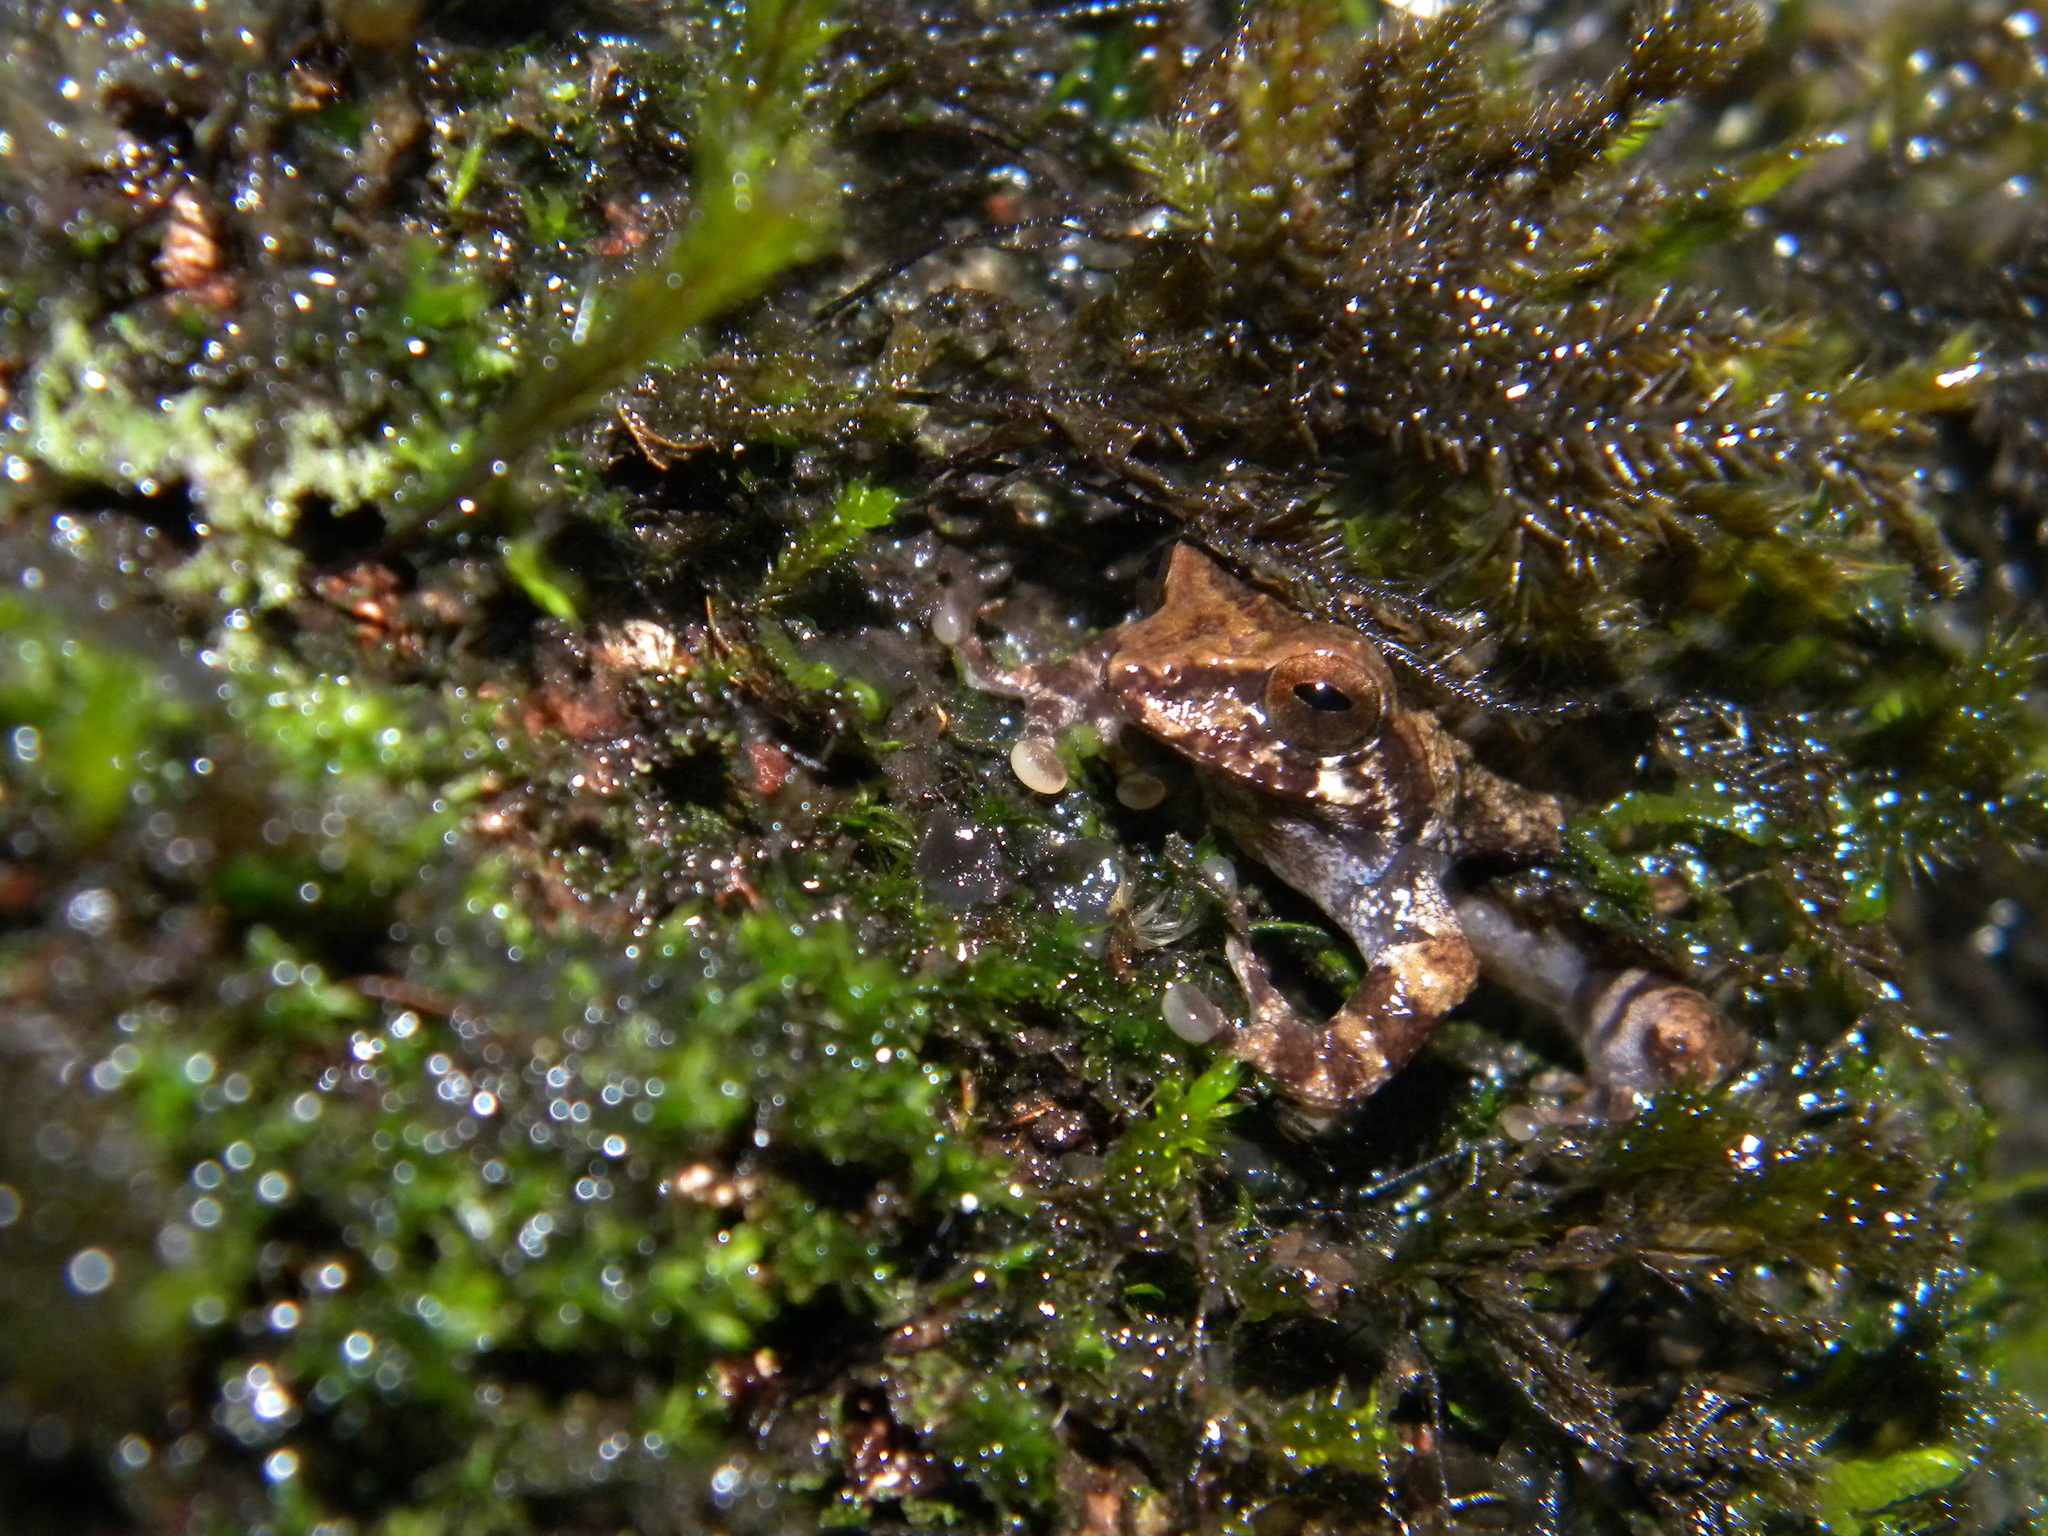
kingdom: Animalia
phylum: Chordata
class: Amphibia
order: Anura
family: Rhacophoridae
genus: Raorchestes
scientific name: Raorchestes crustai
